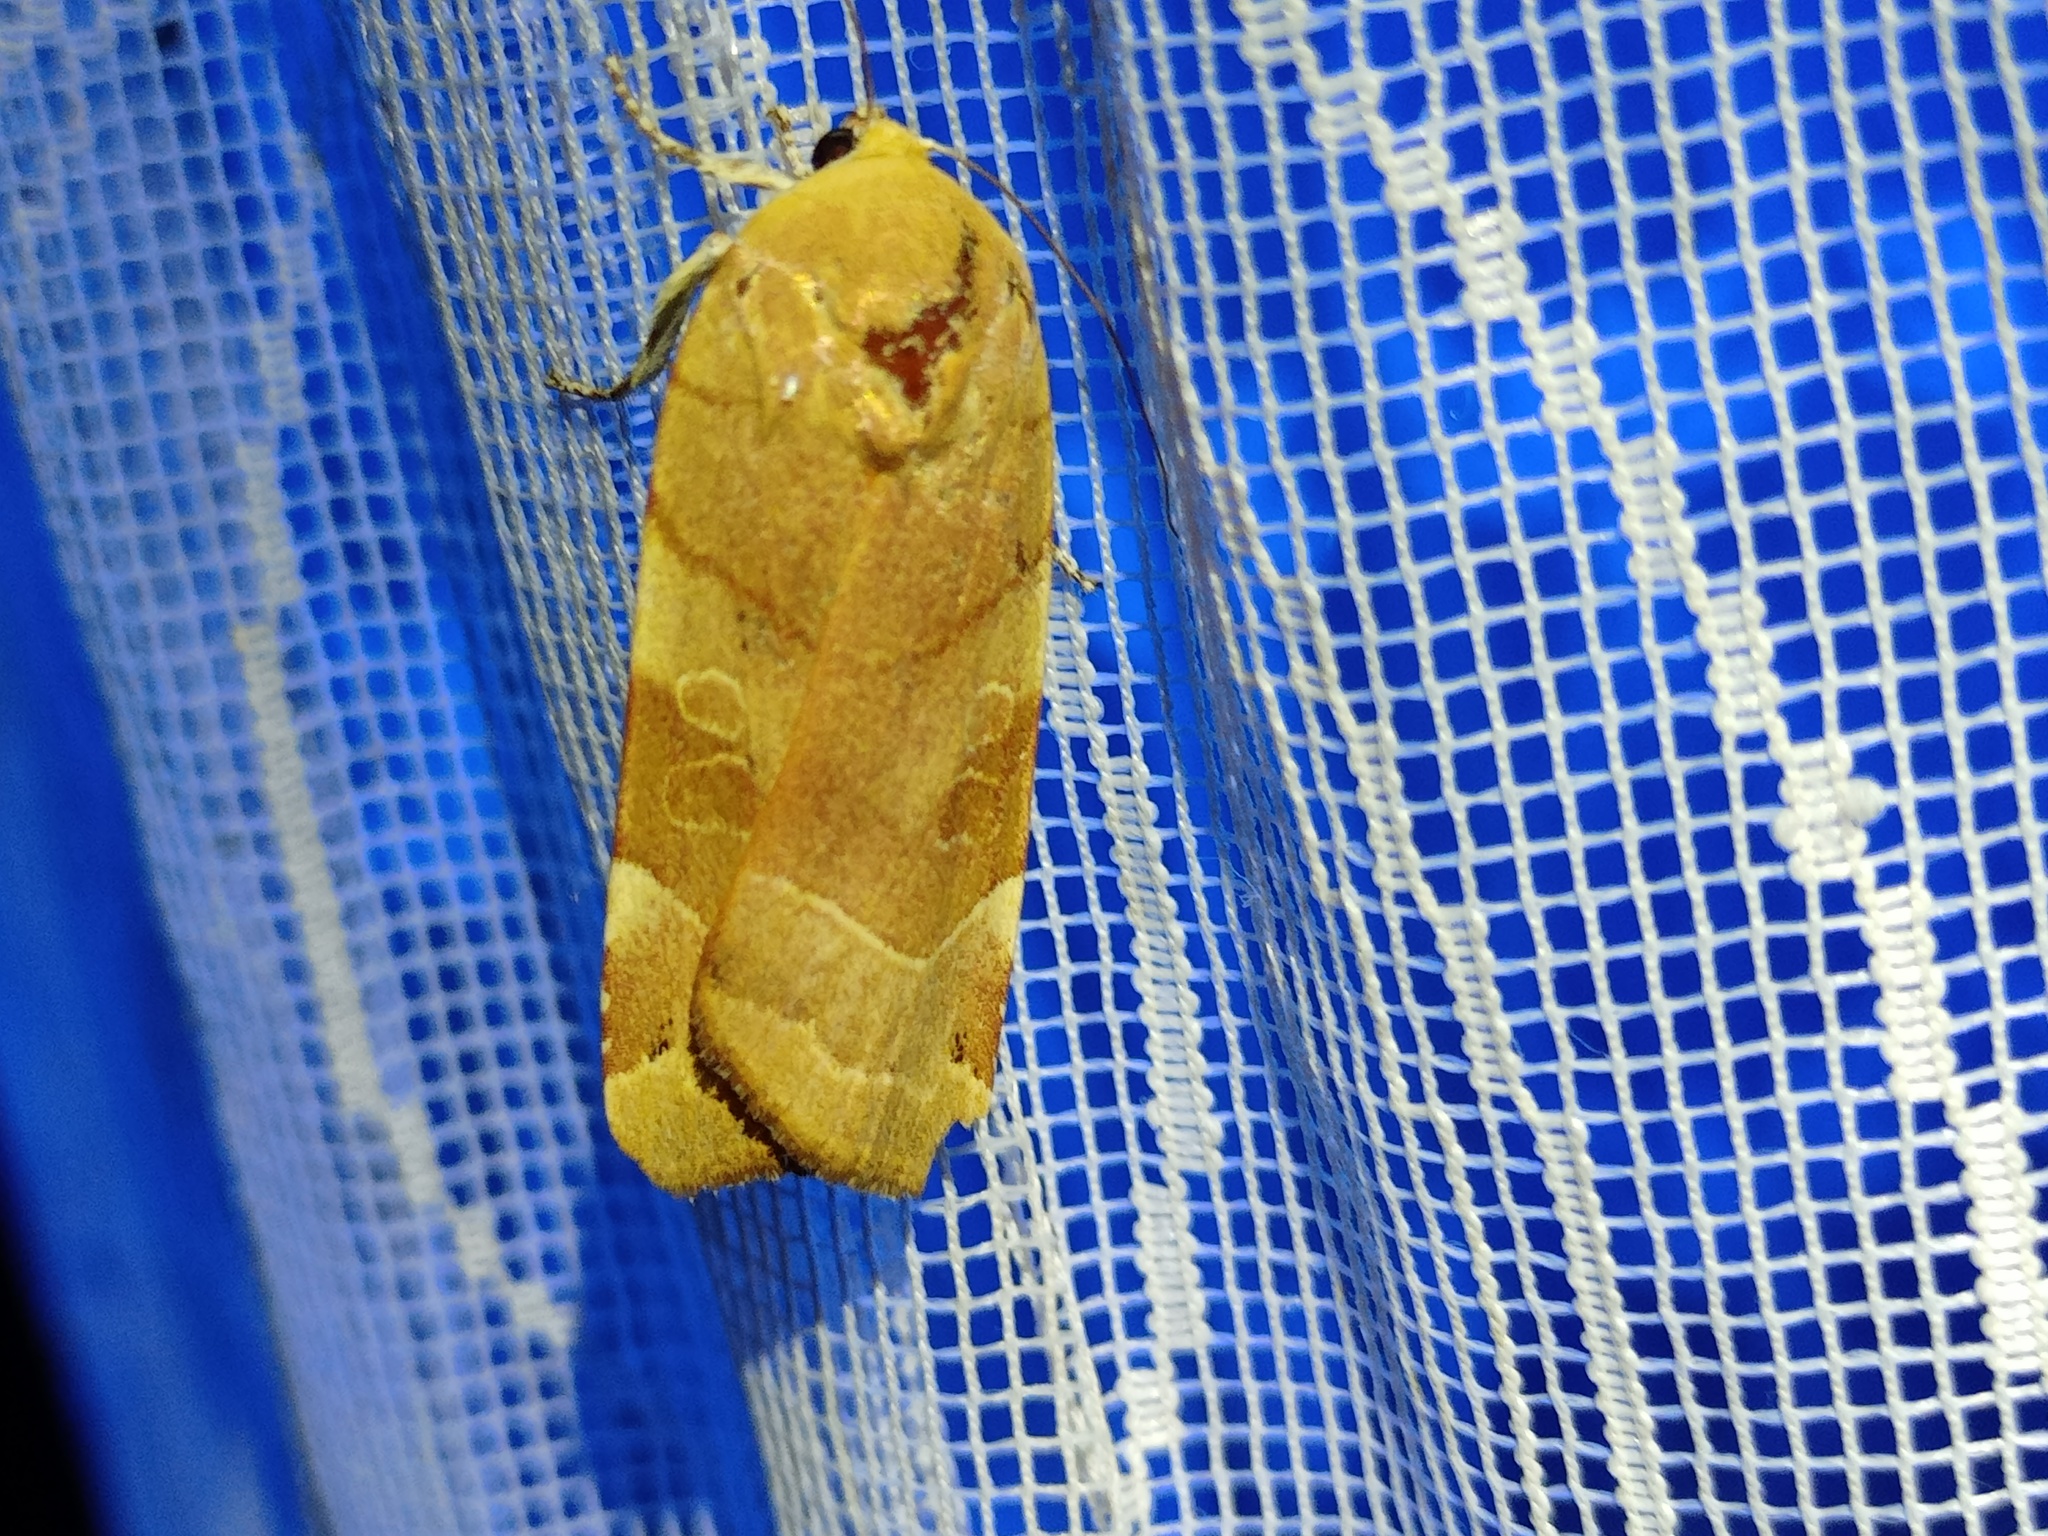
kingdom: Animalia
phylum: Arthropoda
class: Insecta
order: Lepidoptera
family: Noctuidae
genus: Noctua
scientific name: Noctua fimbriata
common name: Broad-bordered yellow underwing
